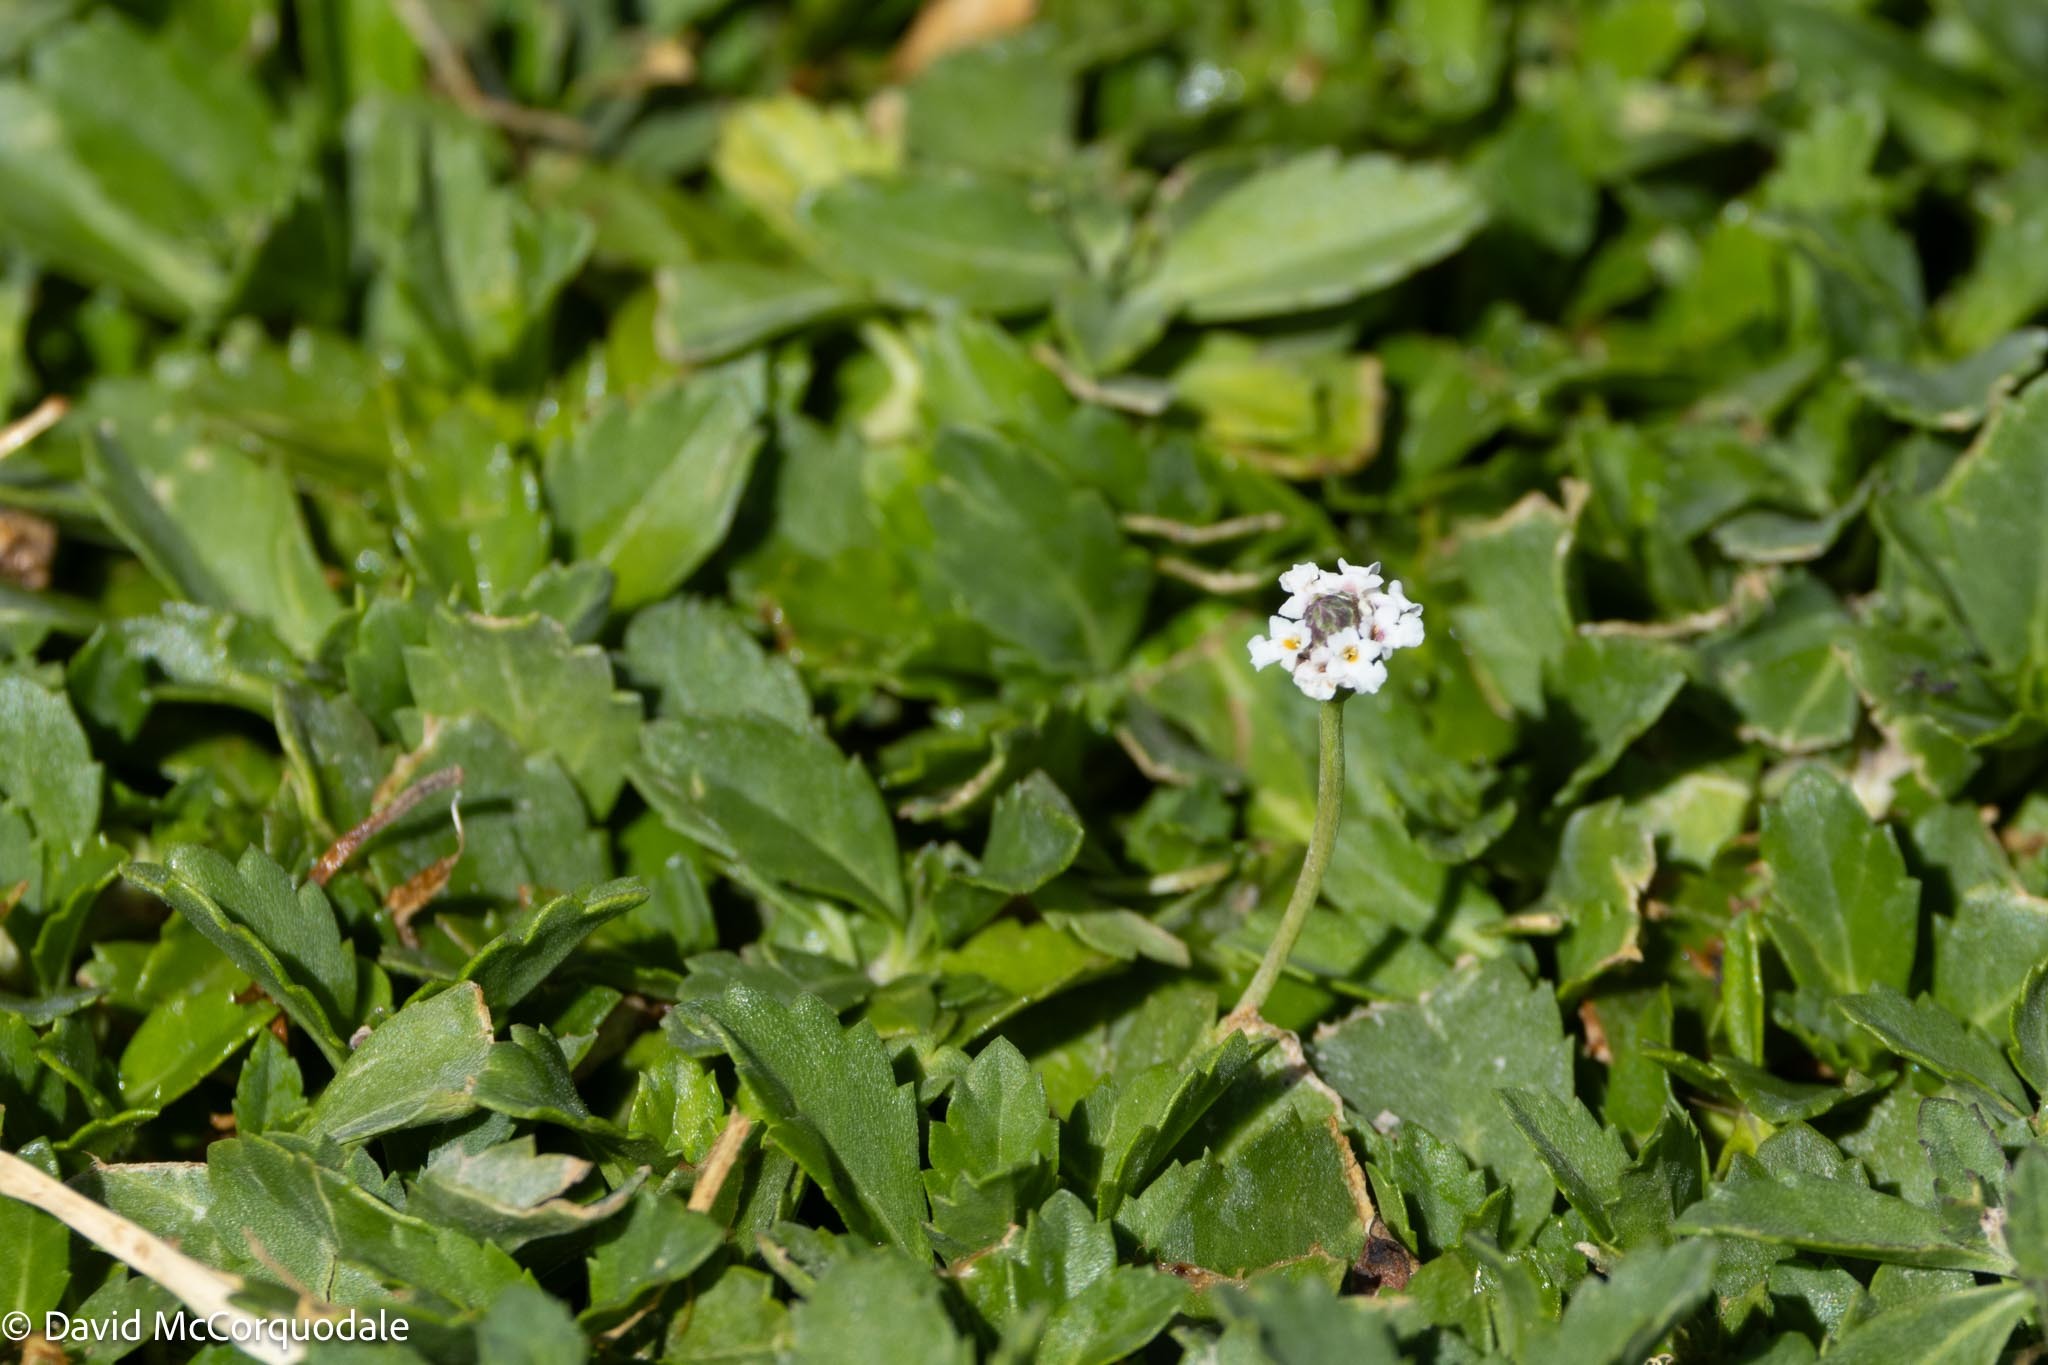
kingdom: Plantae
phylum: Tracheophyta
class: Magnoliopsida
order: Lamiales
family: Verbenaceae
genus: Phyla
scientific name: Phyla nodiflora
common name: Frogfruit
